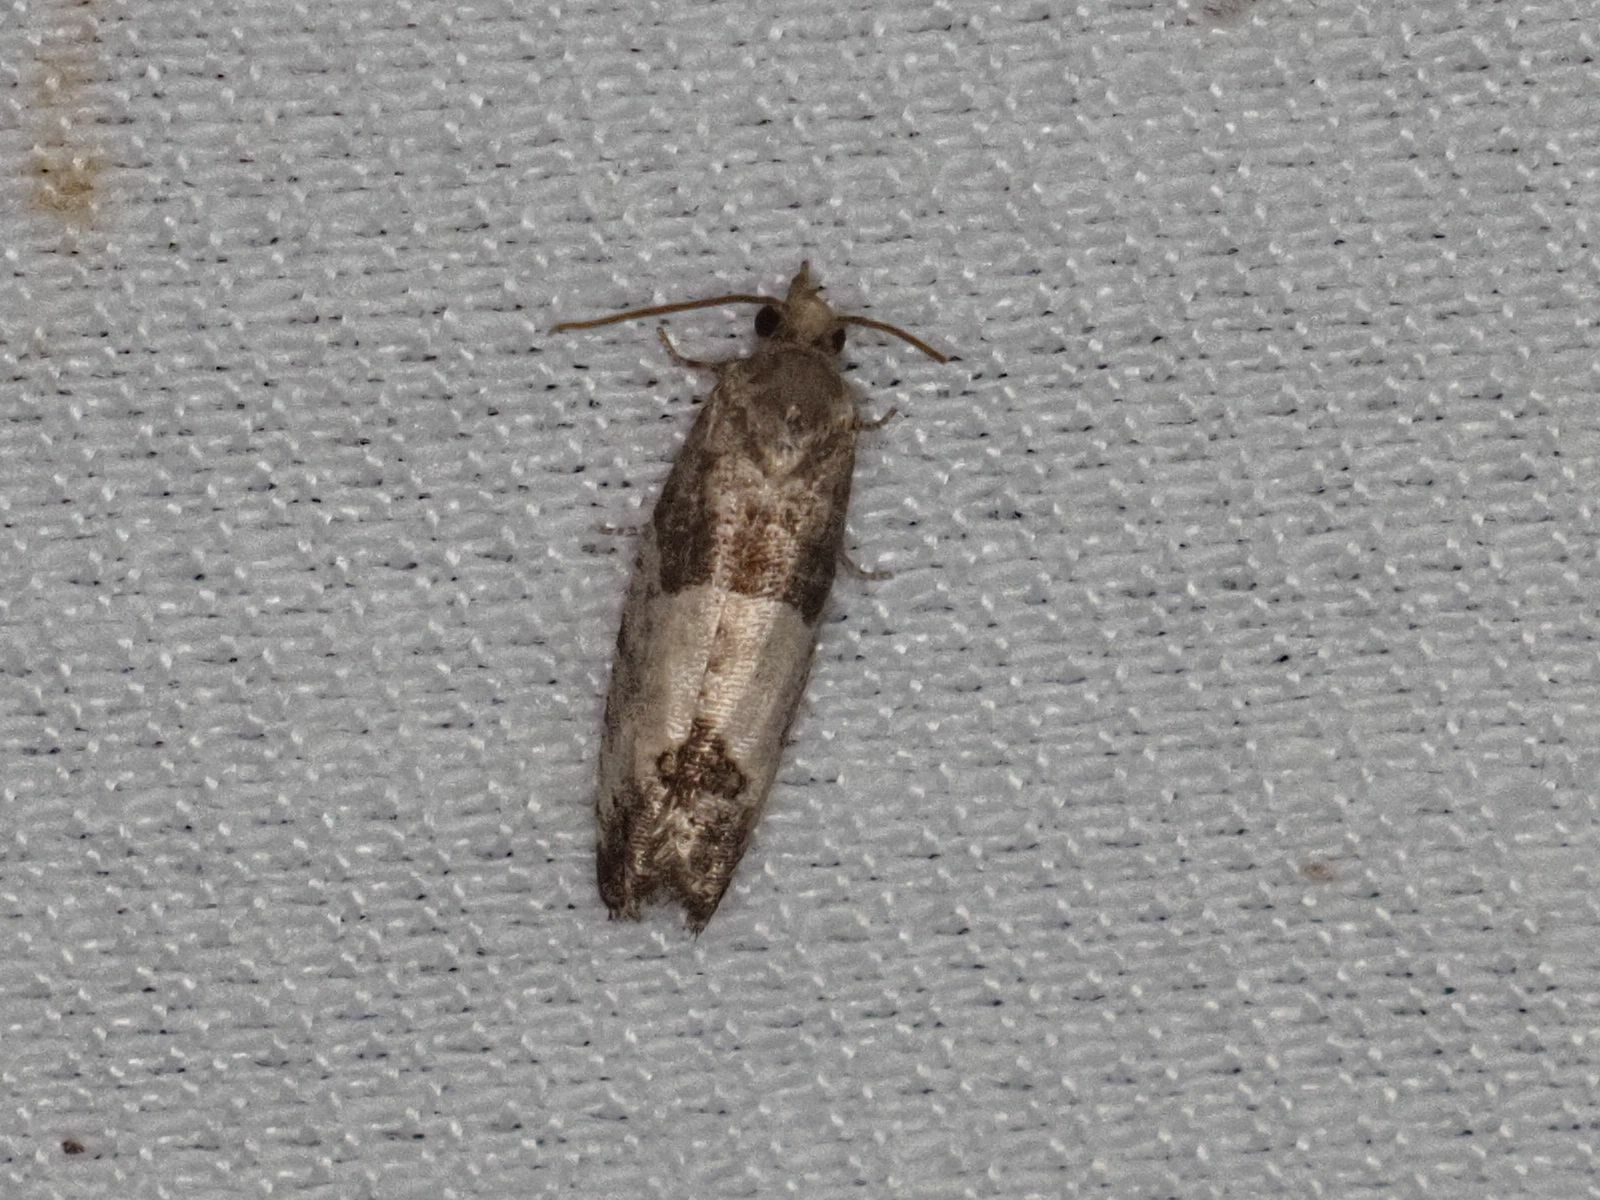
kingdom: Animalia
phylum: Arthropoda
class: Insecta
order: Lepidoptera
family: Tortricidae
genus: Spilonota
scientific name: Spilonota ocellana
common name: Bud moth
